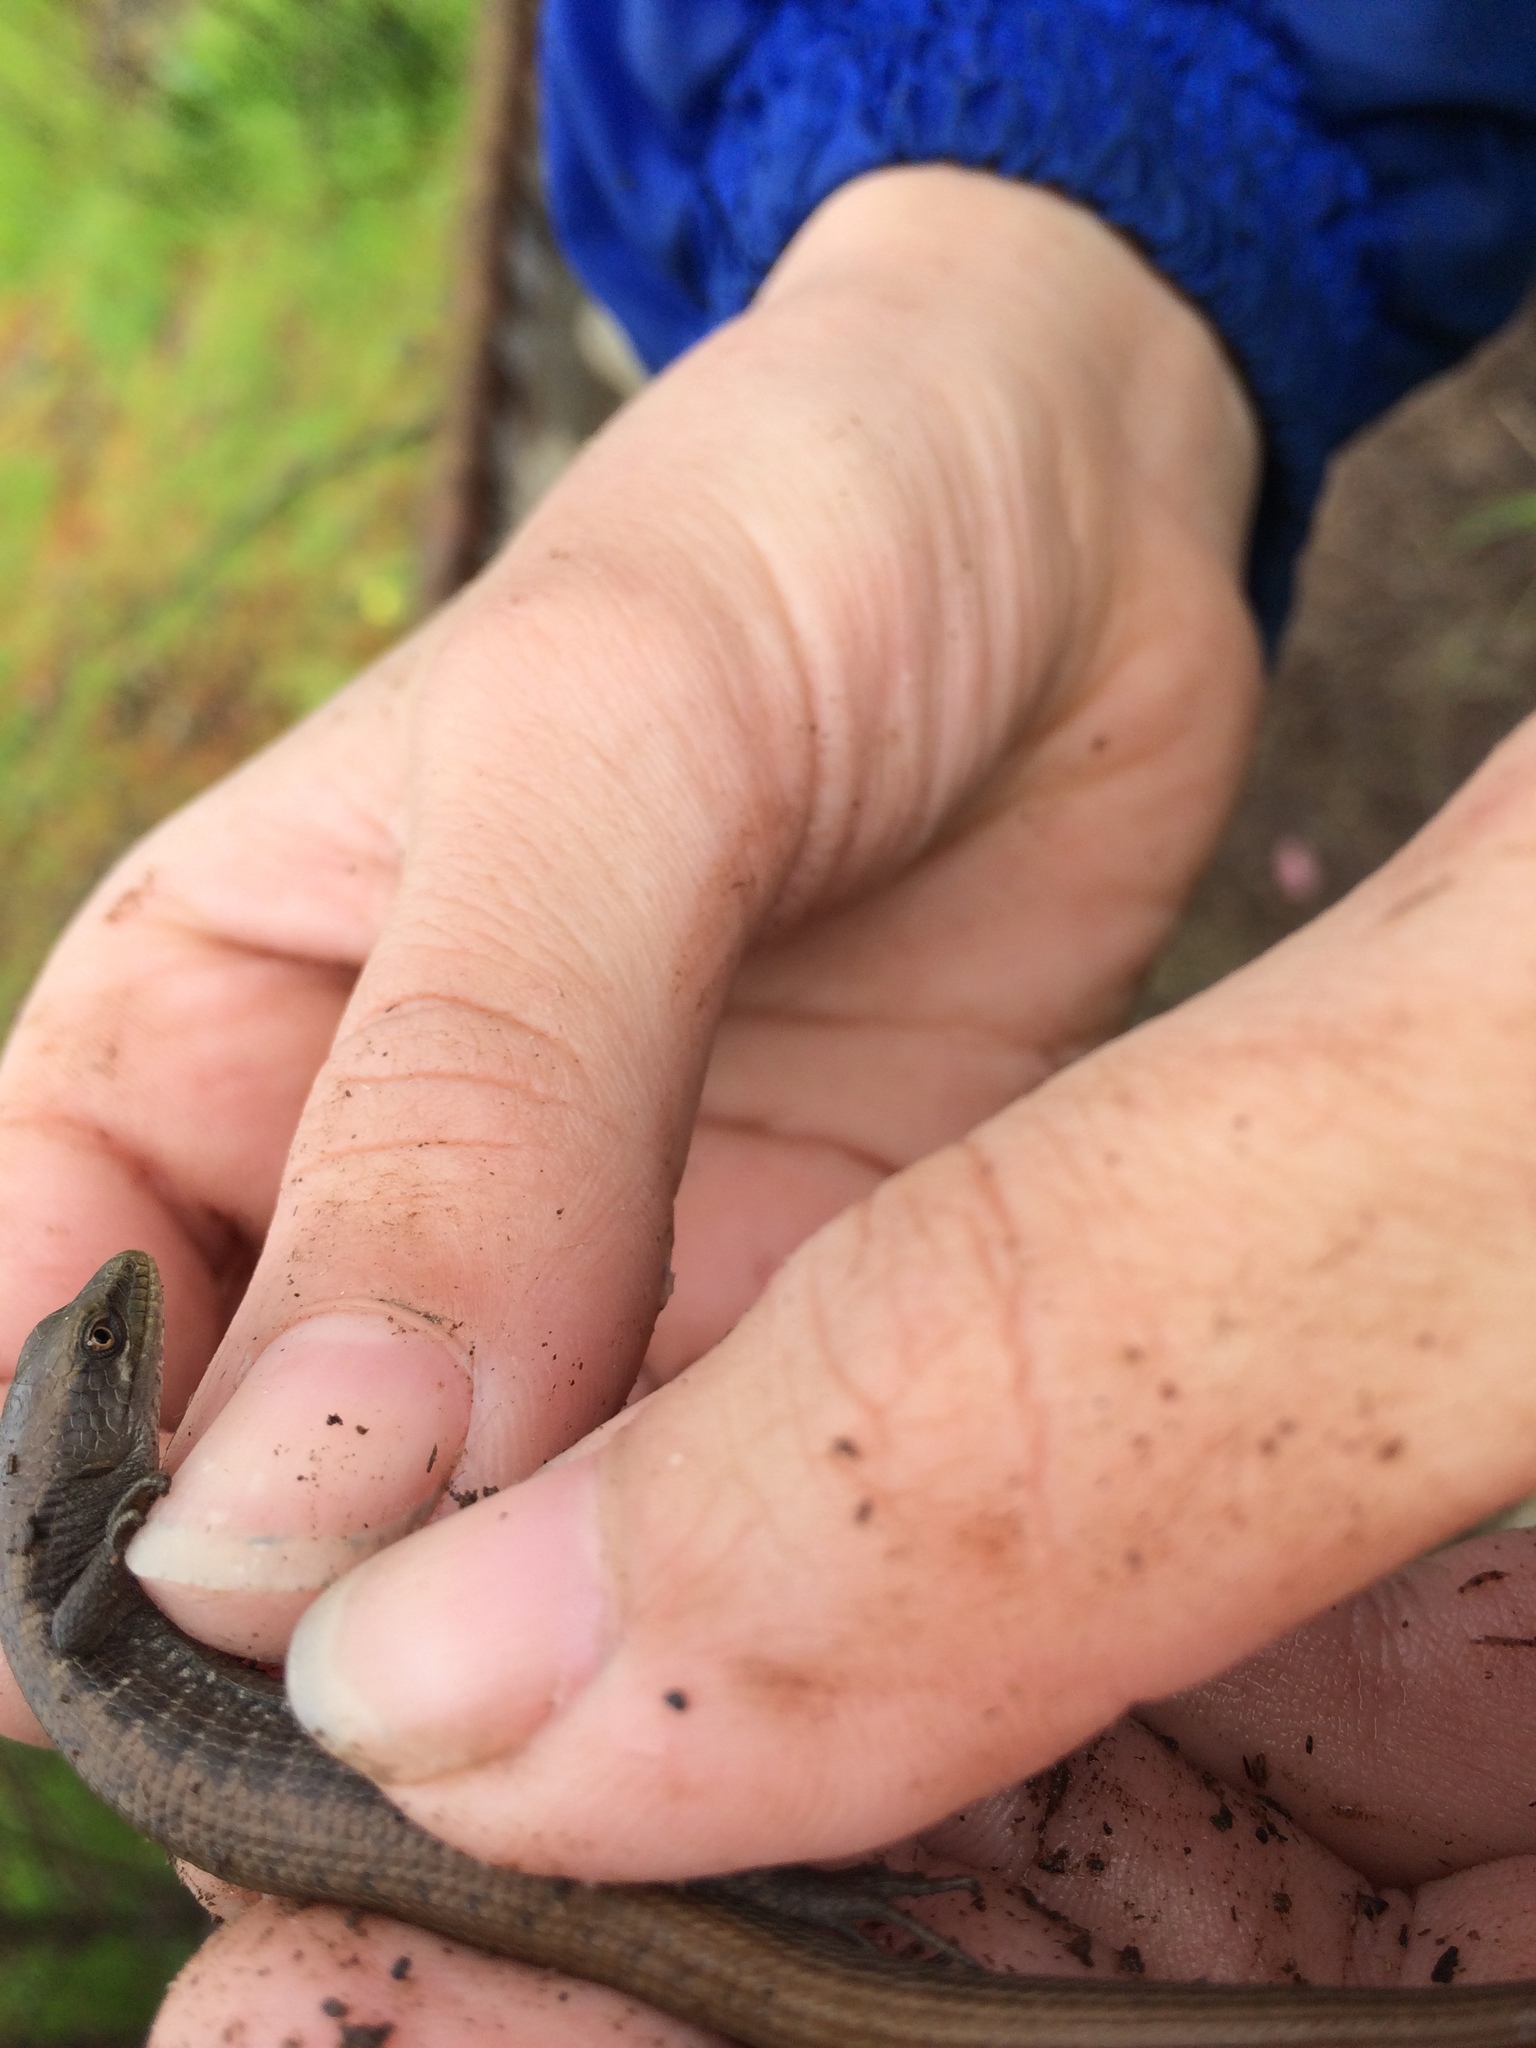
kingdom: Animalia
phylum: Chordata
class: Squamata
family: Anguidae
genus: Elgaria
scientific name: Elgaria multicarinata
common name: Southern alligator lizard
